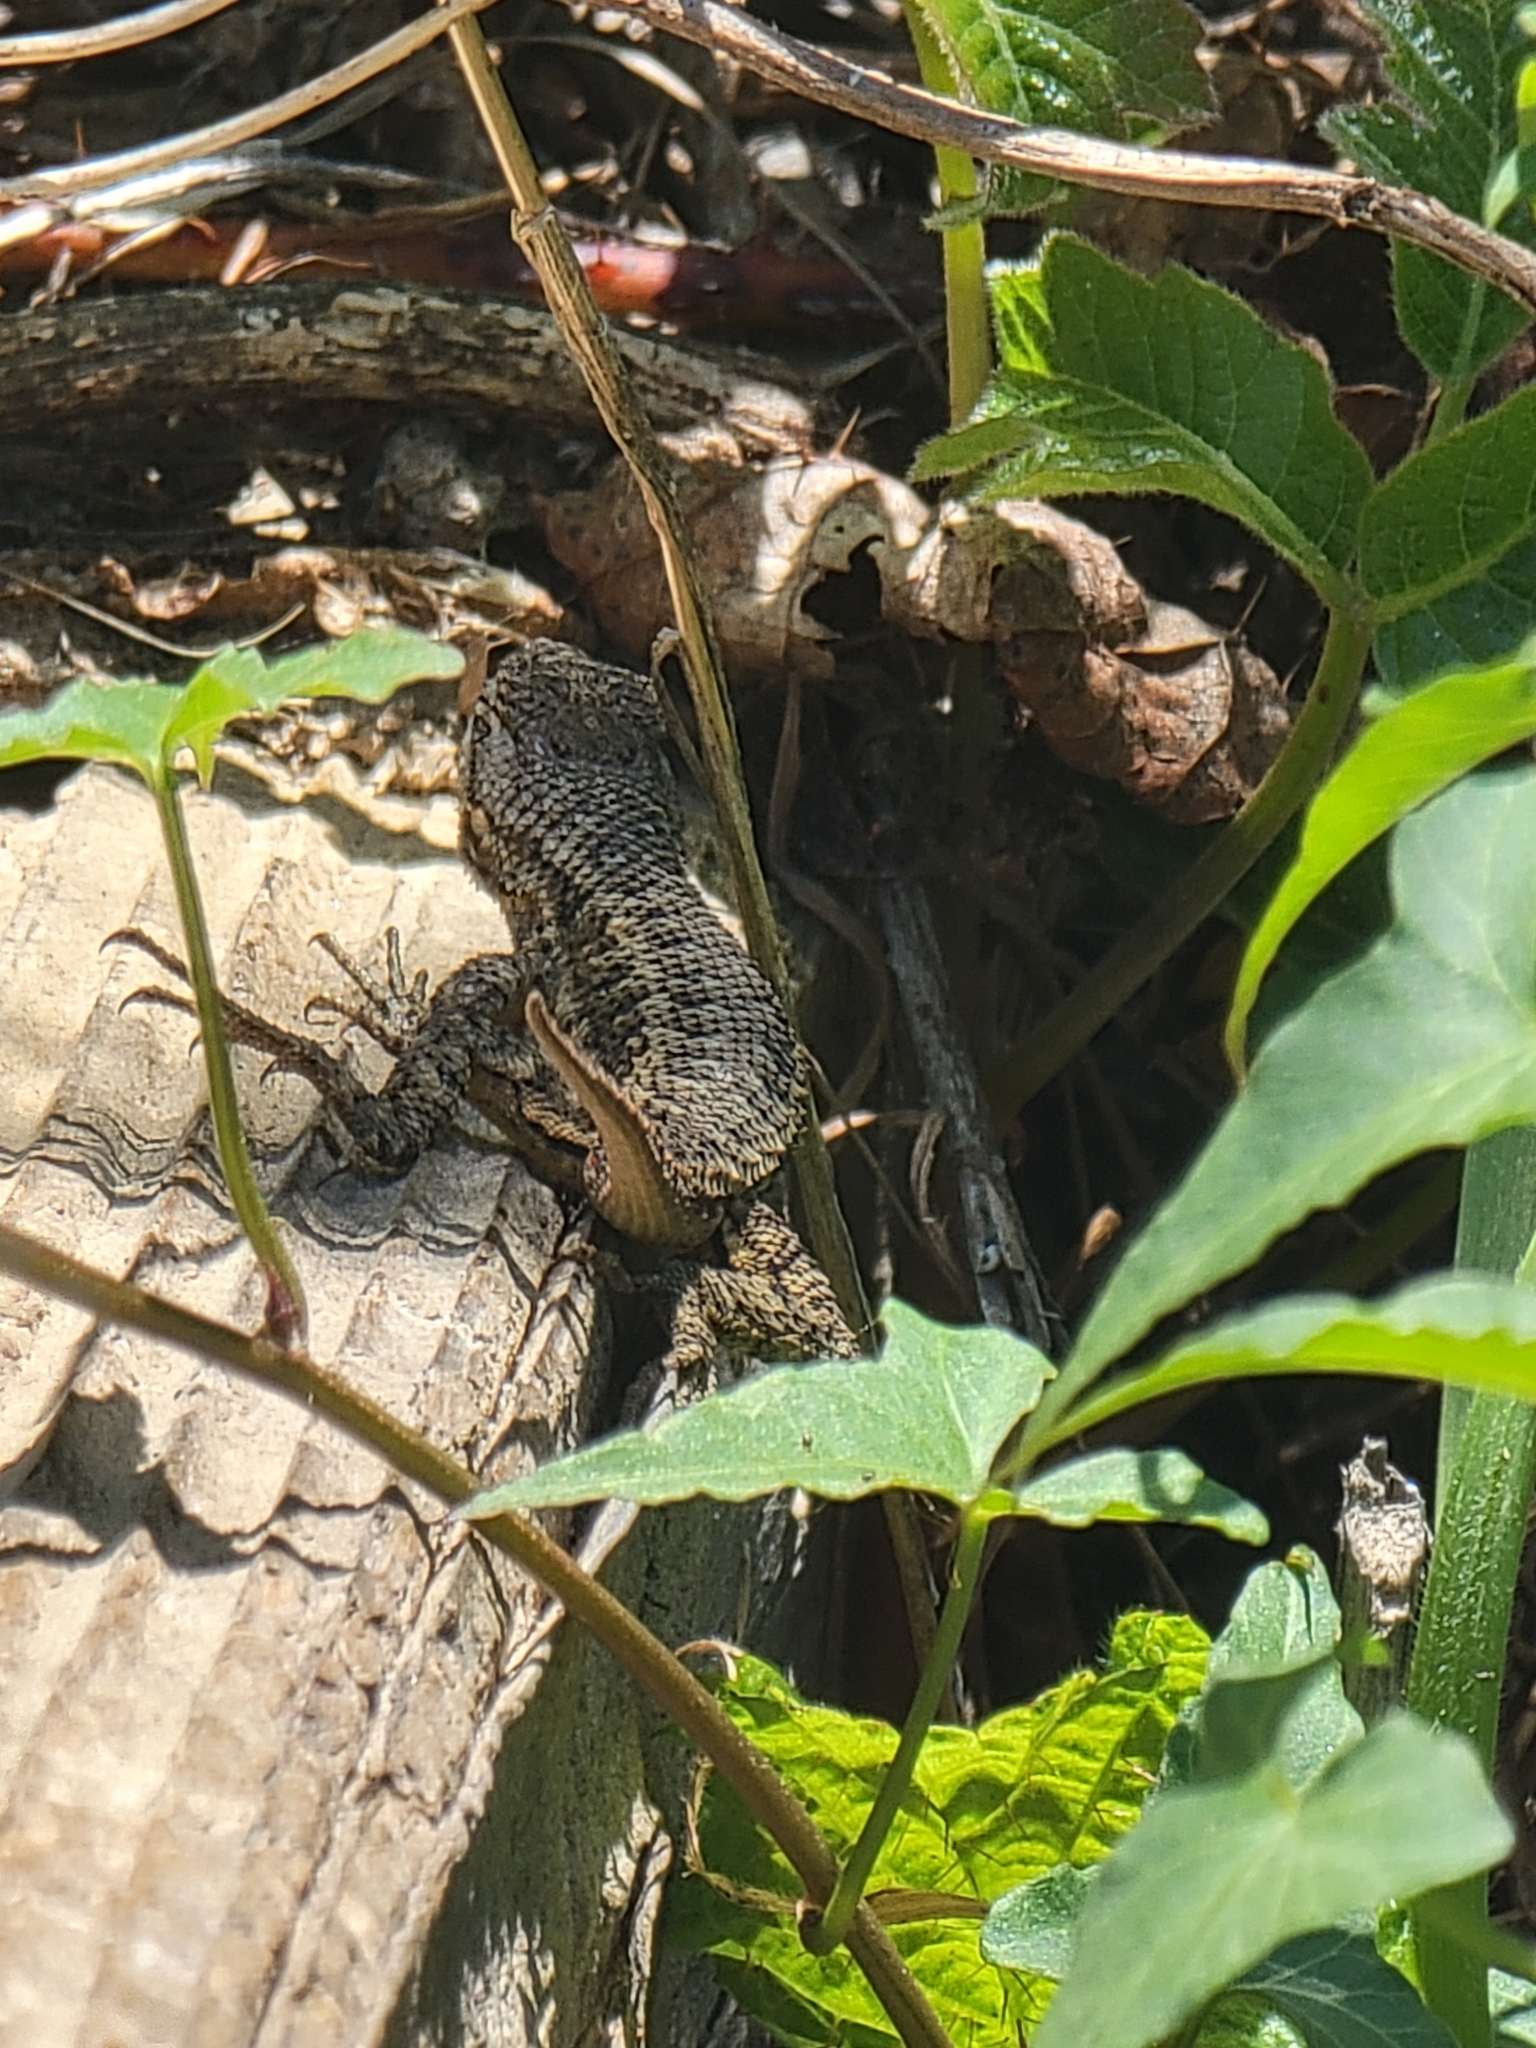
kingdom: Animalia
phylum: Chordata
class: Squamata
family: Phrynosomatidae
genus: Sceloporus
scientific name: Sceloporus occidentalis
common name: Western fence lizard
